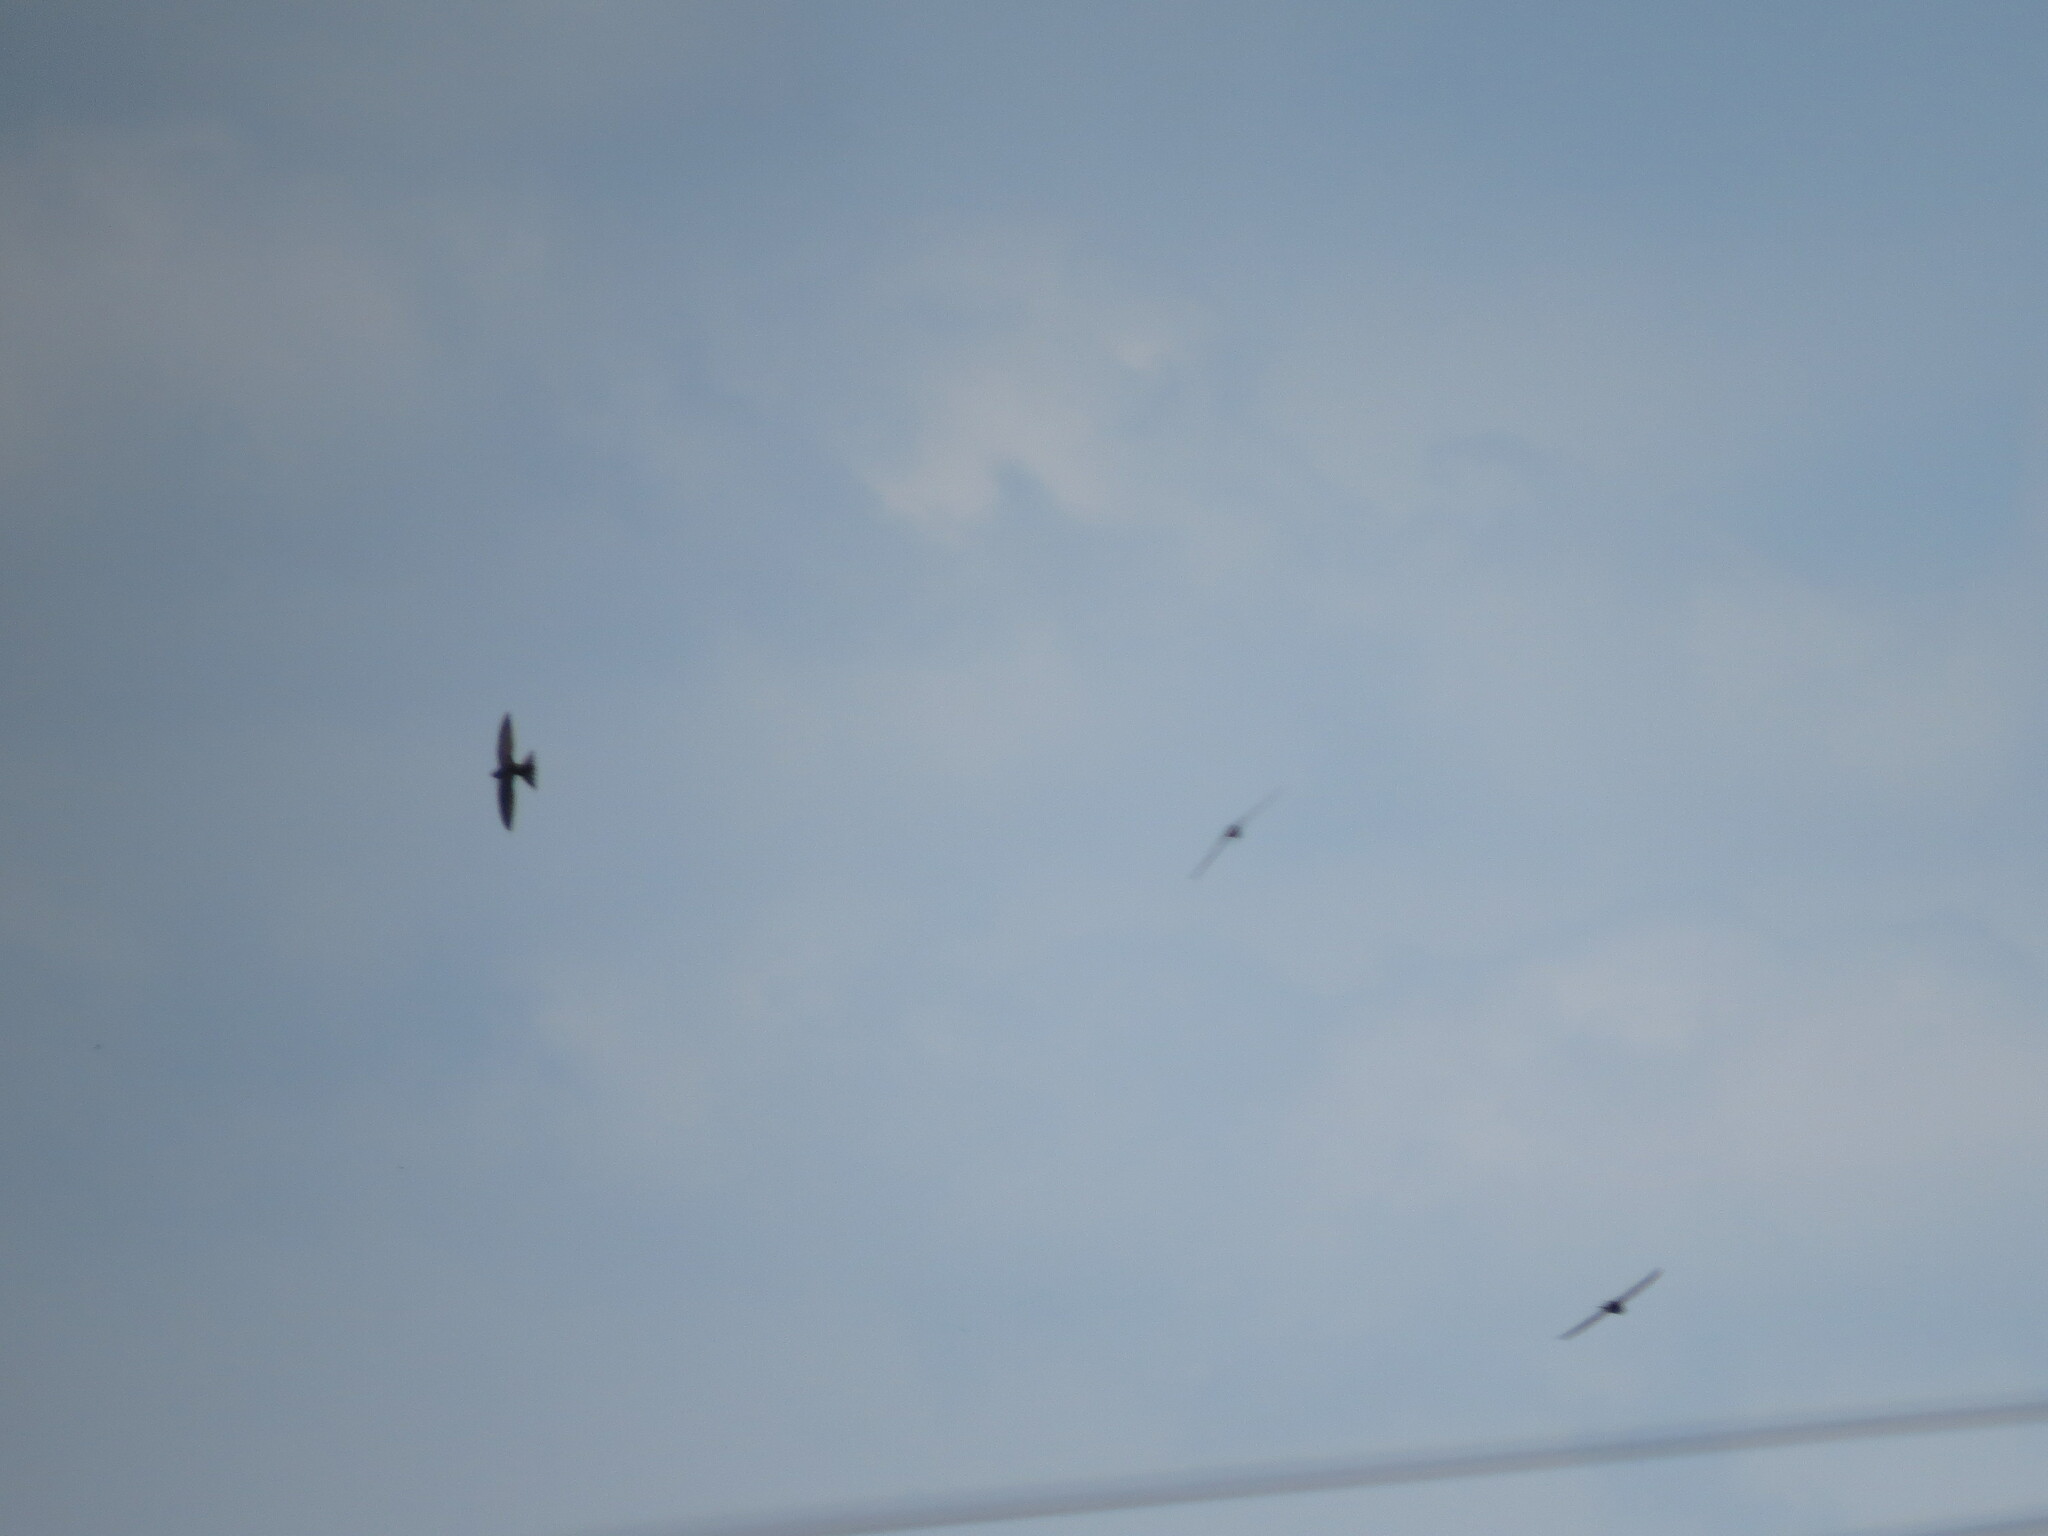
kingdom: Animalia
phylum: Chordata
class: Aves
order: Apodiformes
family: Apodidae
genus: Apus
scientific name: Apus apus
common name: Common swift
